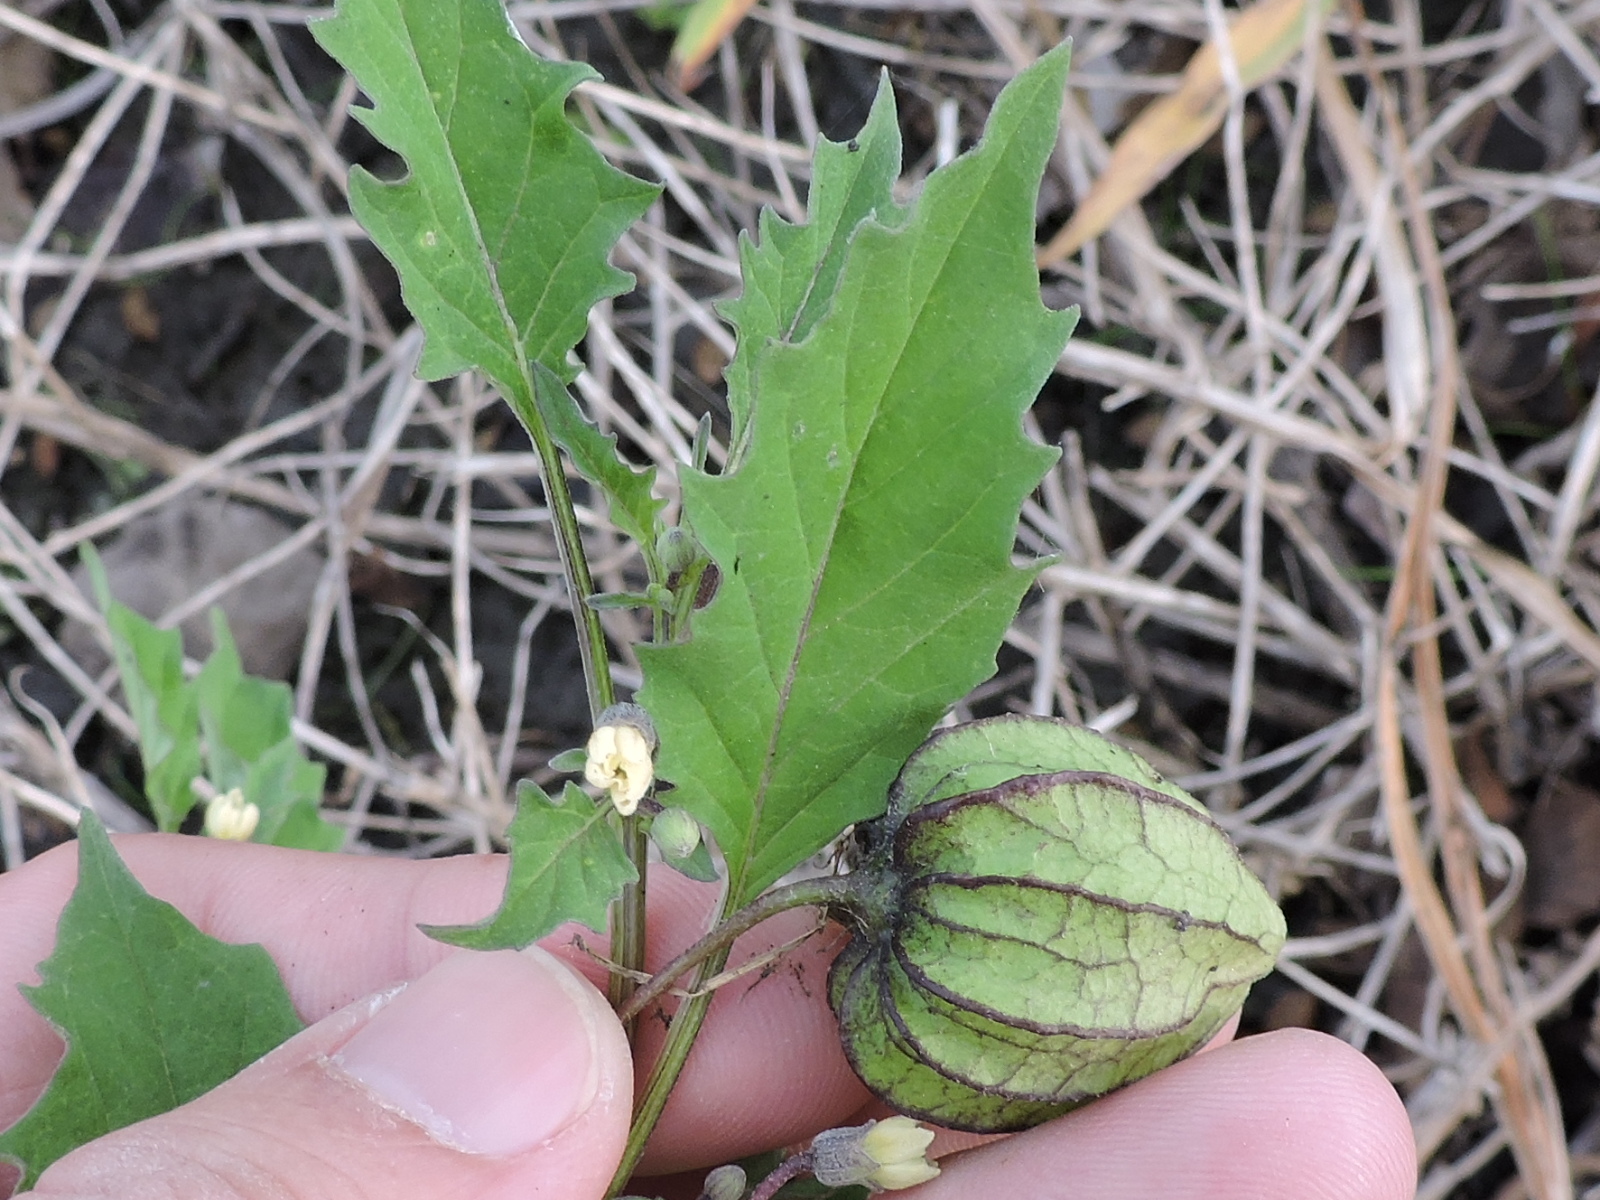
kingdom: Plantae
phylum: Tracheophyta
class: Magnoliopsida
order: Solanales
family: Solanaceae
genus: Physalis
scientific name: Physalis angulata
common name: Angular winter-cherry
